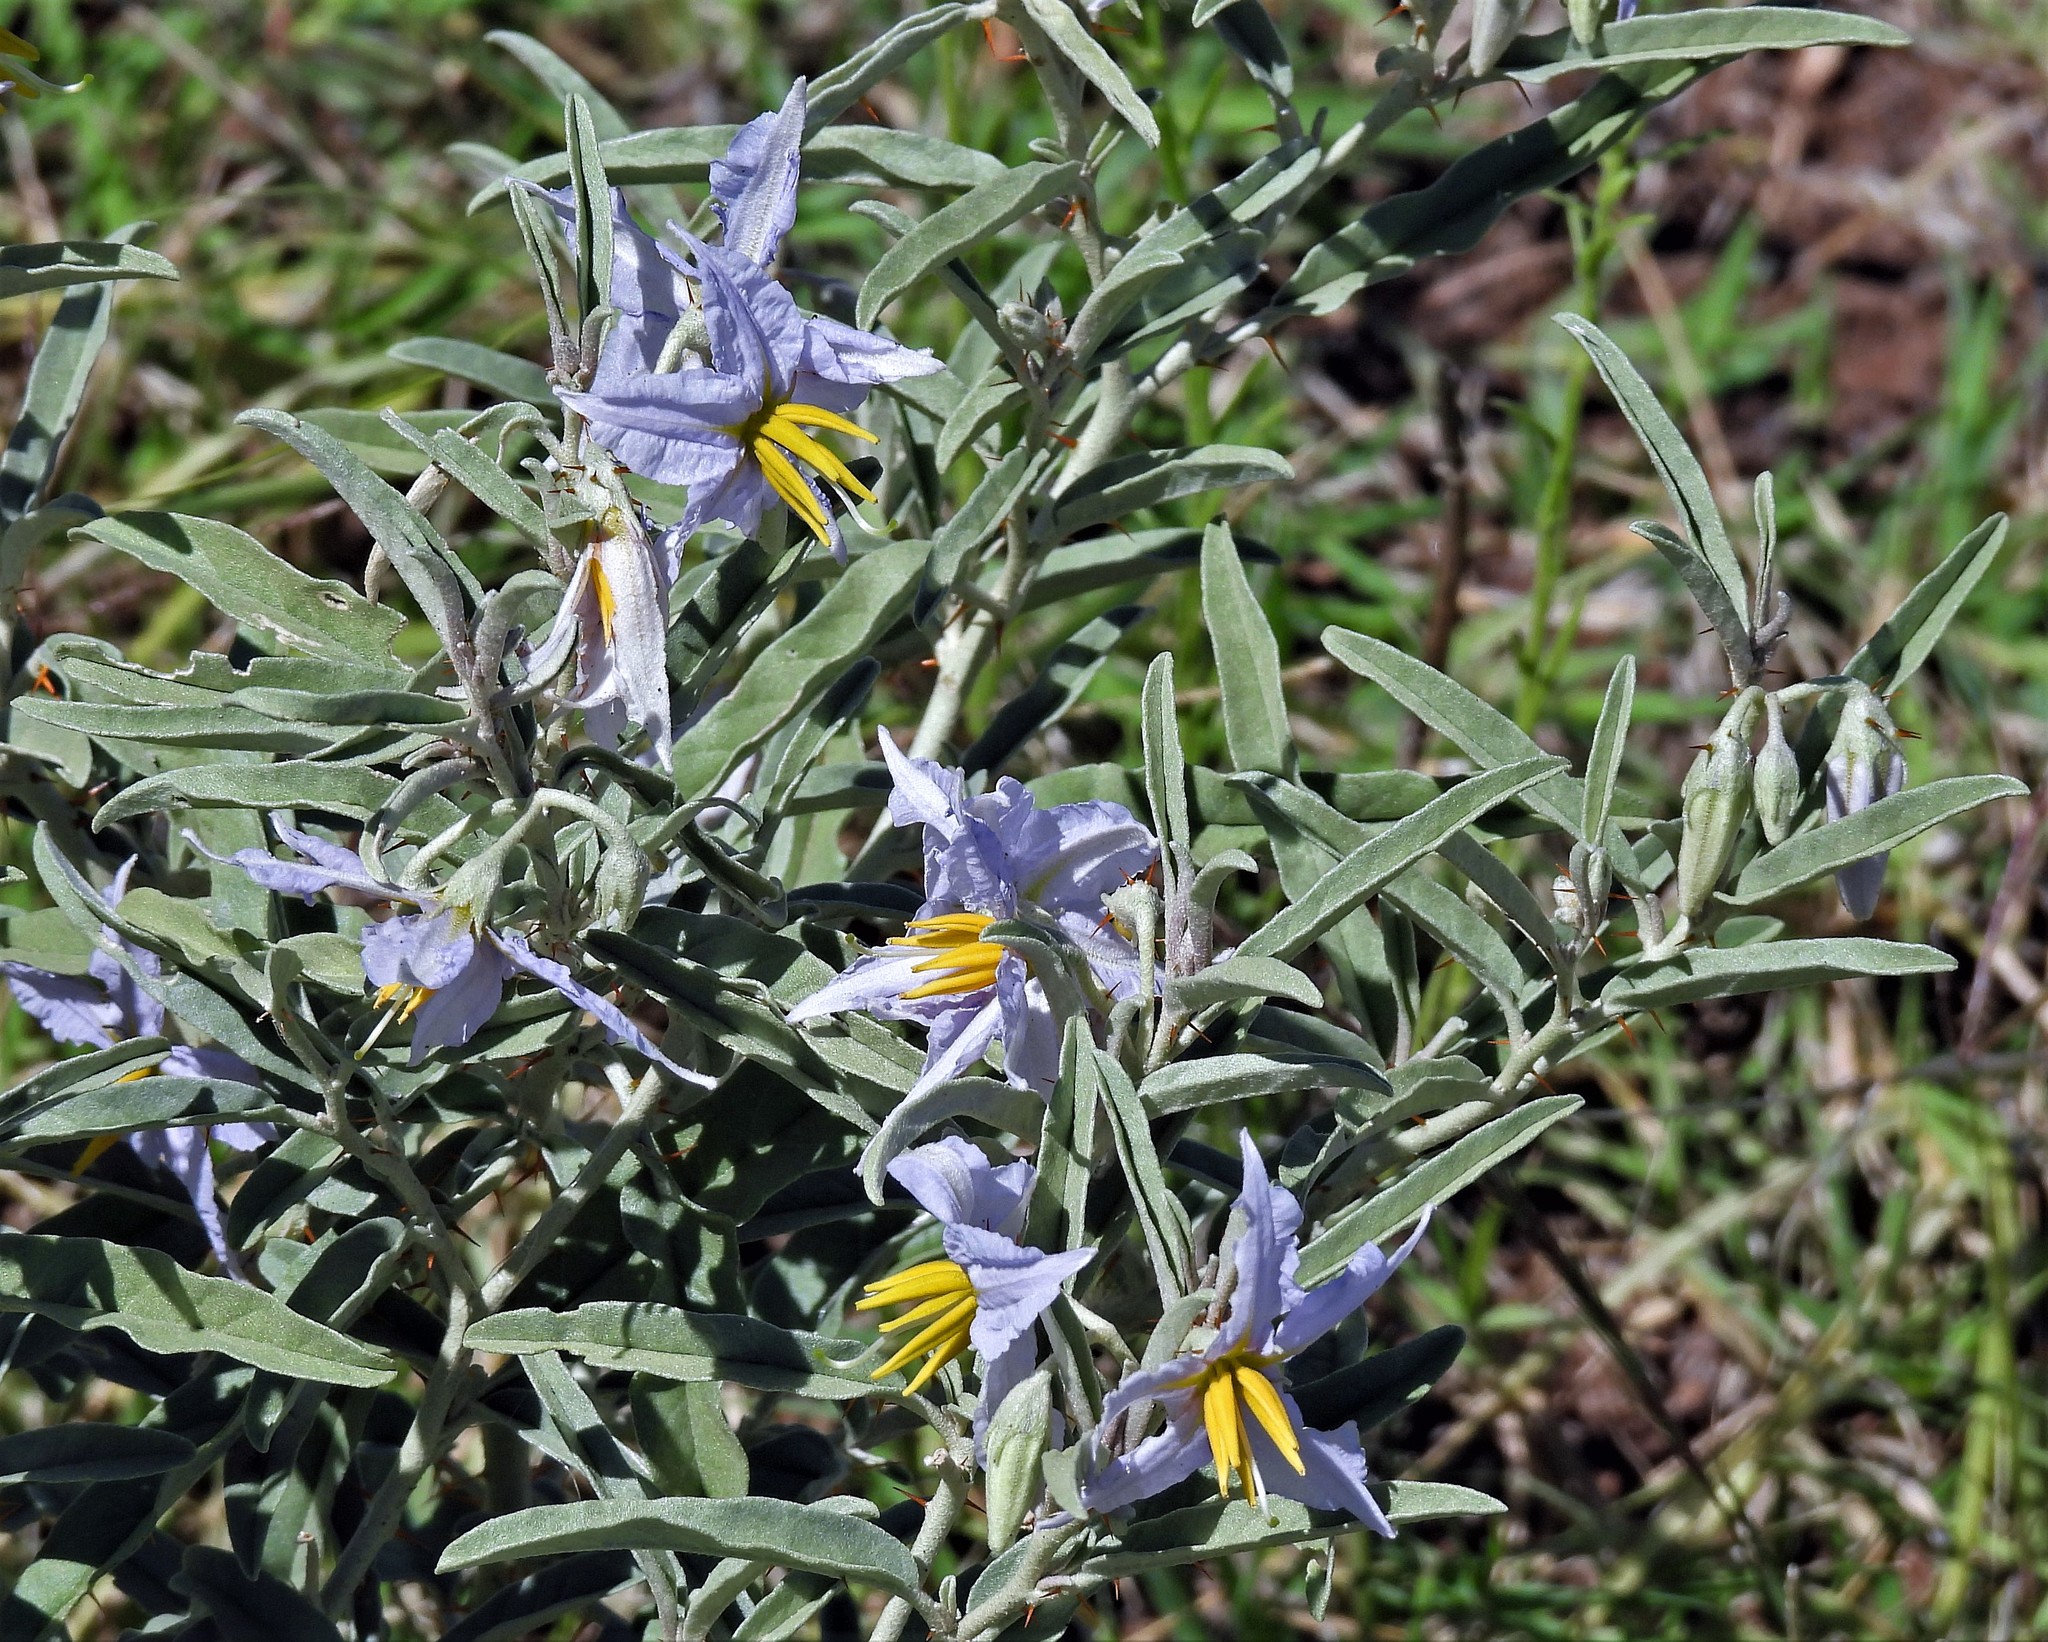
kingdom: Plantae
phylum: Tracheophyta
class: Magnoliopsida
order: Solanales
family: Solanaceae
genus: Solanum
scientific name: Solanum elaeagnifolium
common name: Silverleaf nightshade
